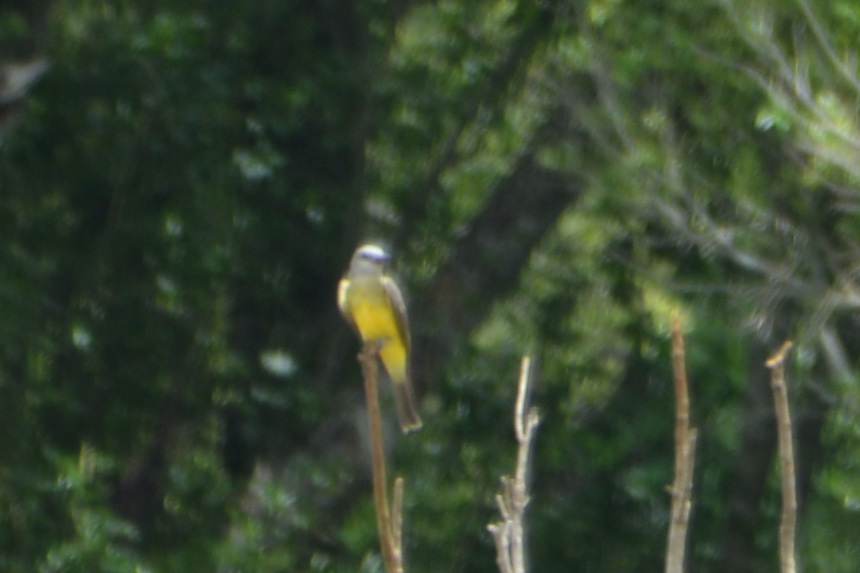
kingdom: Animalia
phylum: Chordata
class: Aves
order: Passeriformes
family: Tyrannidae
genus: Tyrannus
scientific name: Tyrannus melancholicus
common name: Tropical kingbird
